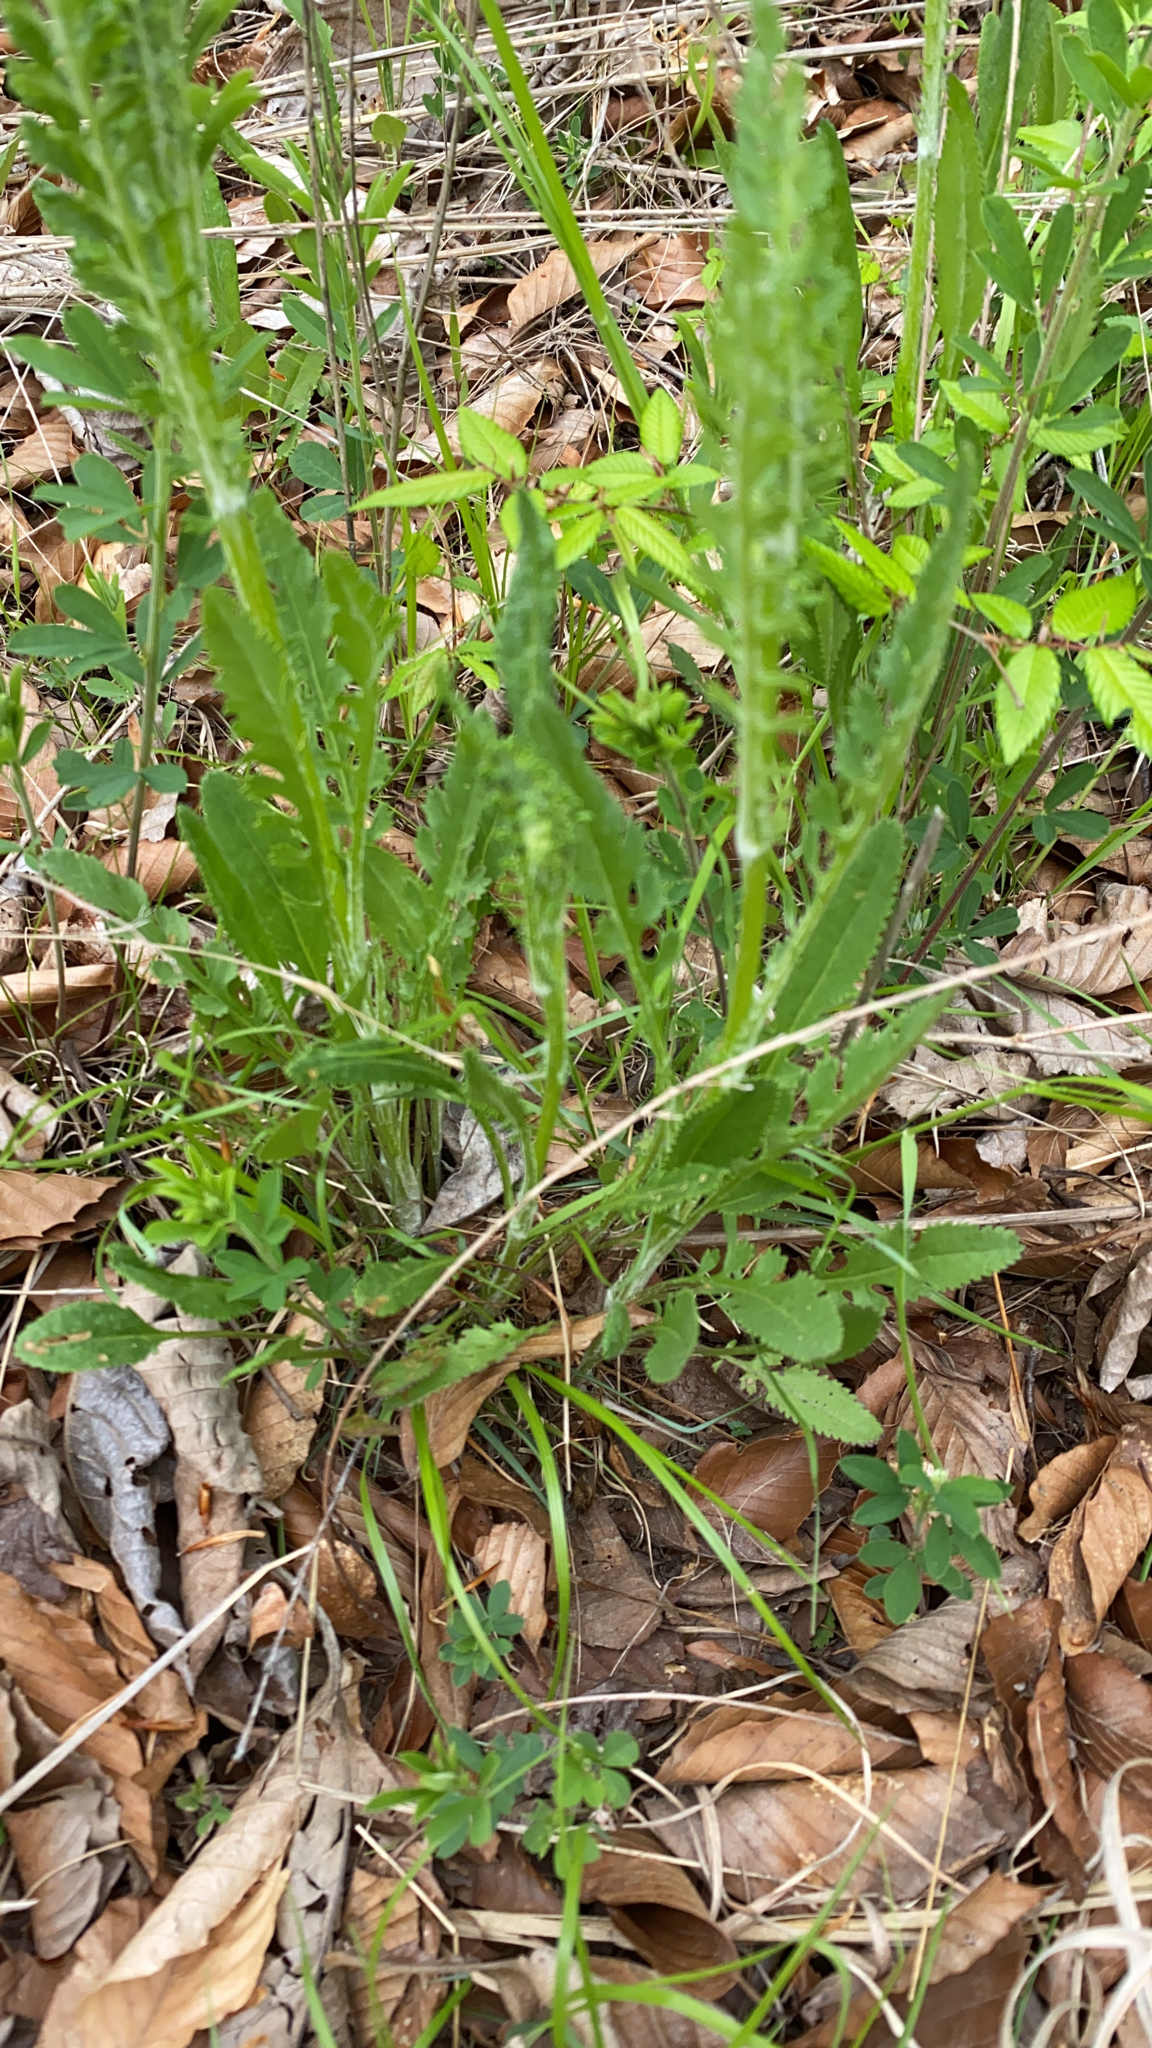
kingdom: Plantae
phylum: Tracheophyta
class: Magnoliopsida
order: Asterales
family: Asteraceae
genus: Packera
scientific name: Packera anonyma
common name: Small ragwort
